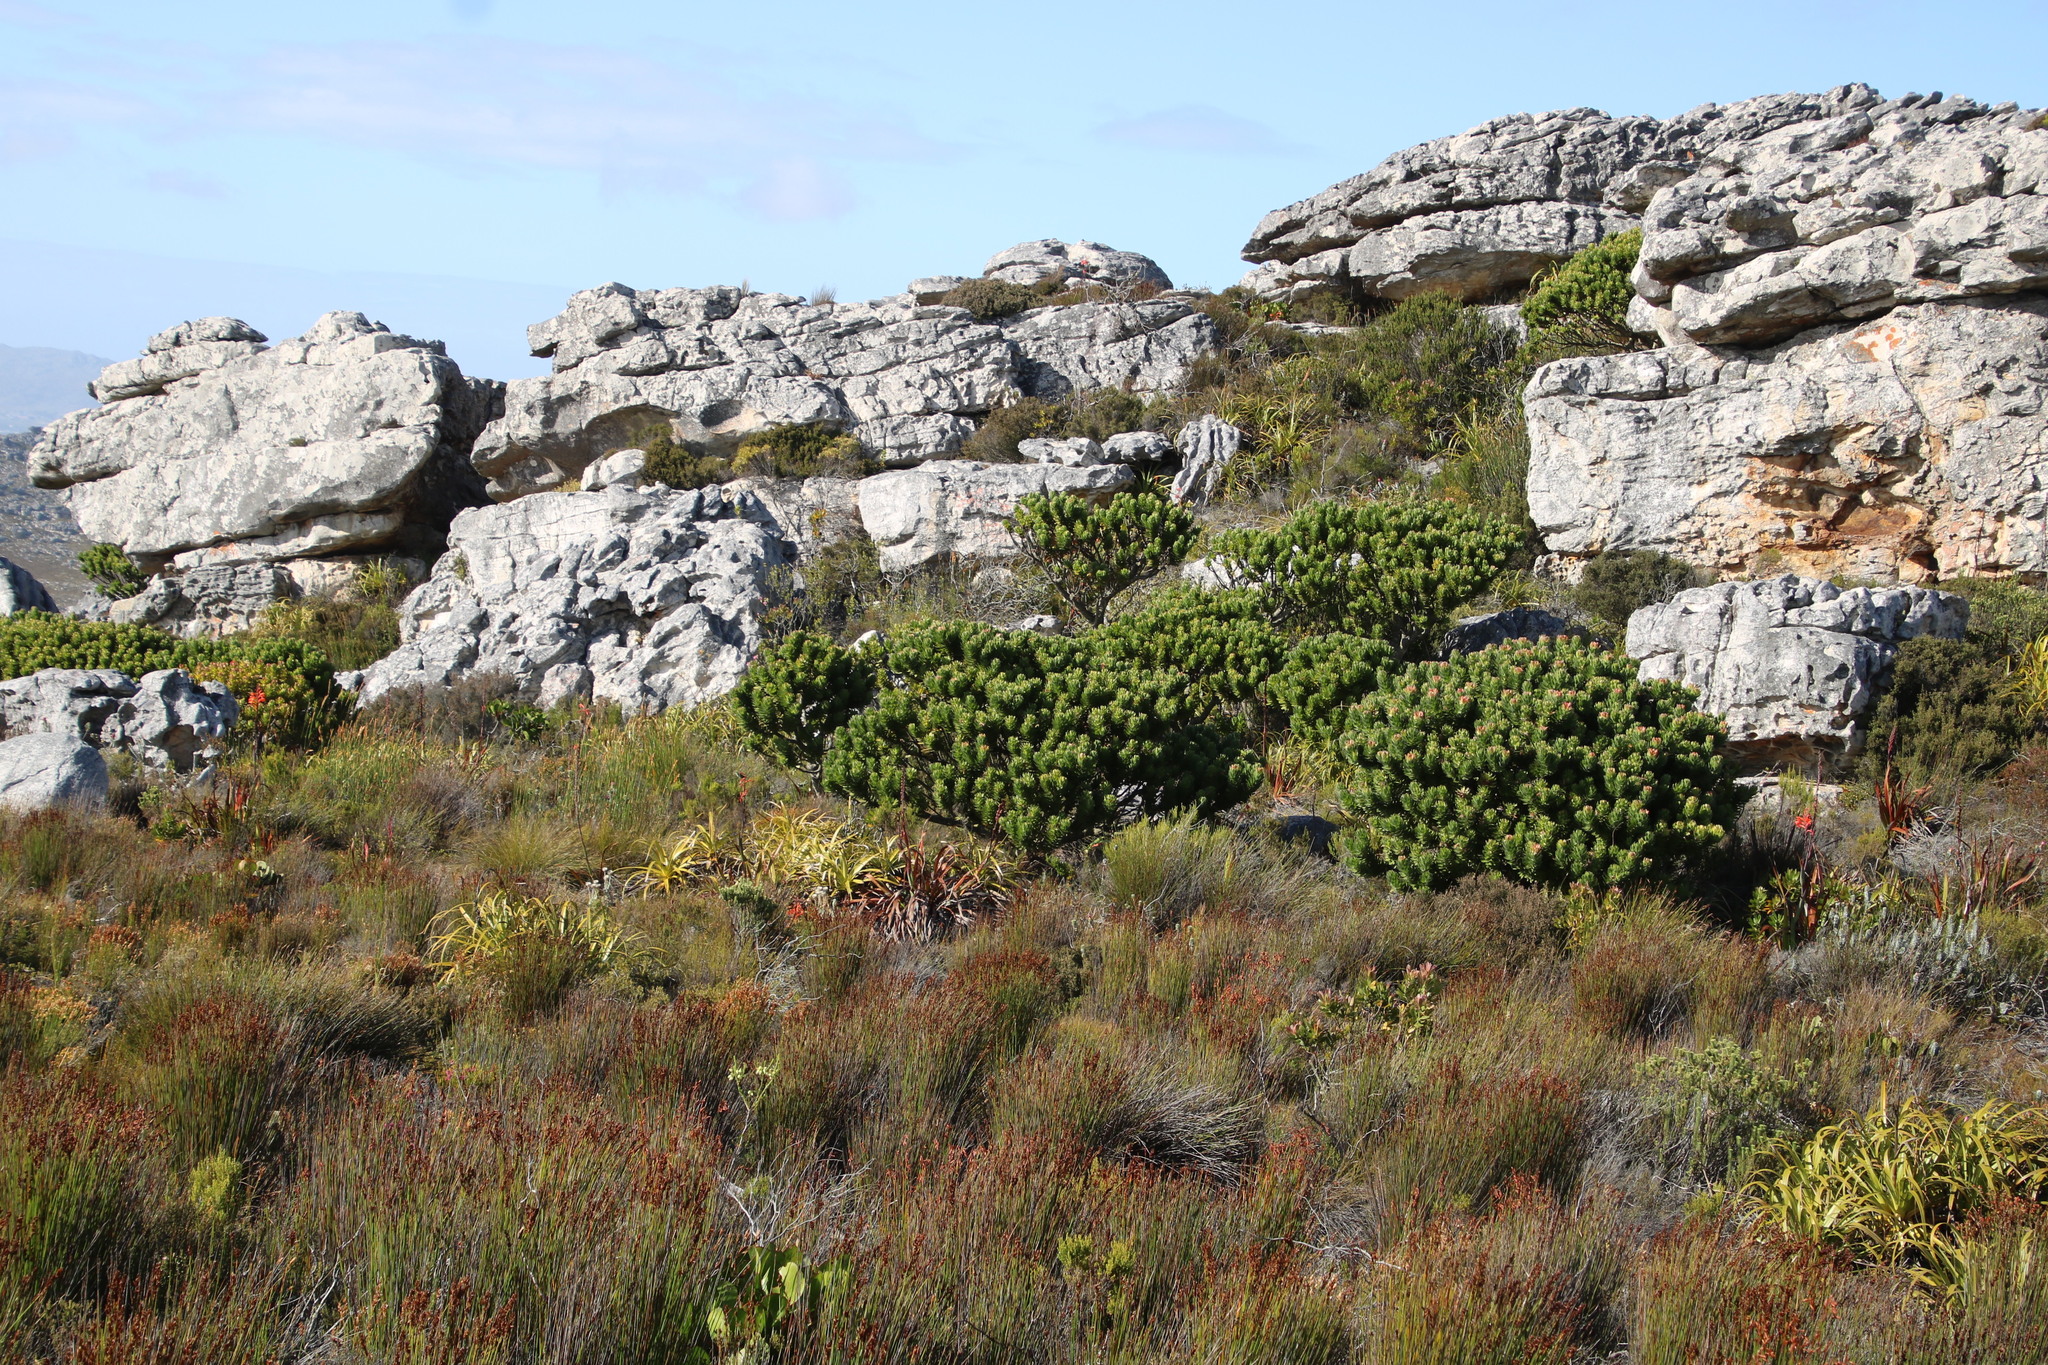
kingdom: Plantae
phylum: Tracheophyta
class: Magnoliopsida
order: Proteales
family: Proteaceae
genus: Mimetes
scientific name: Mimetes fimbriifolius
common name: Fringed bottlebrush
